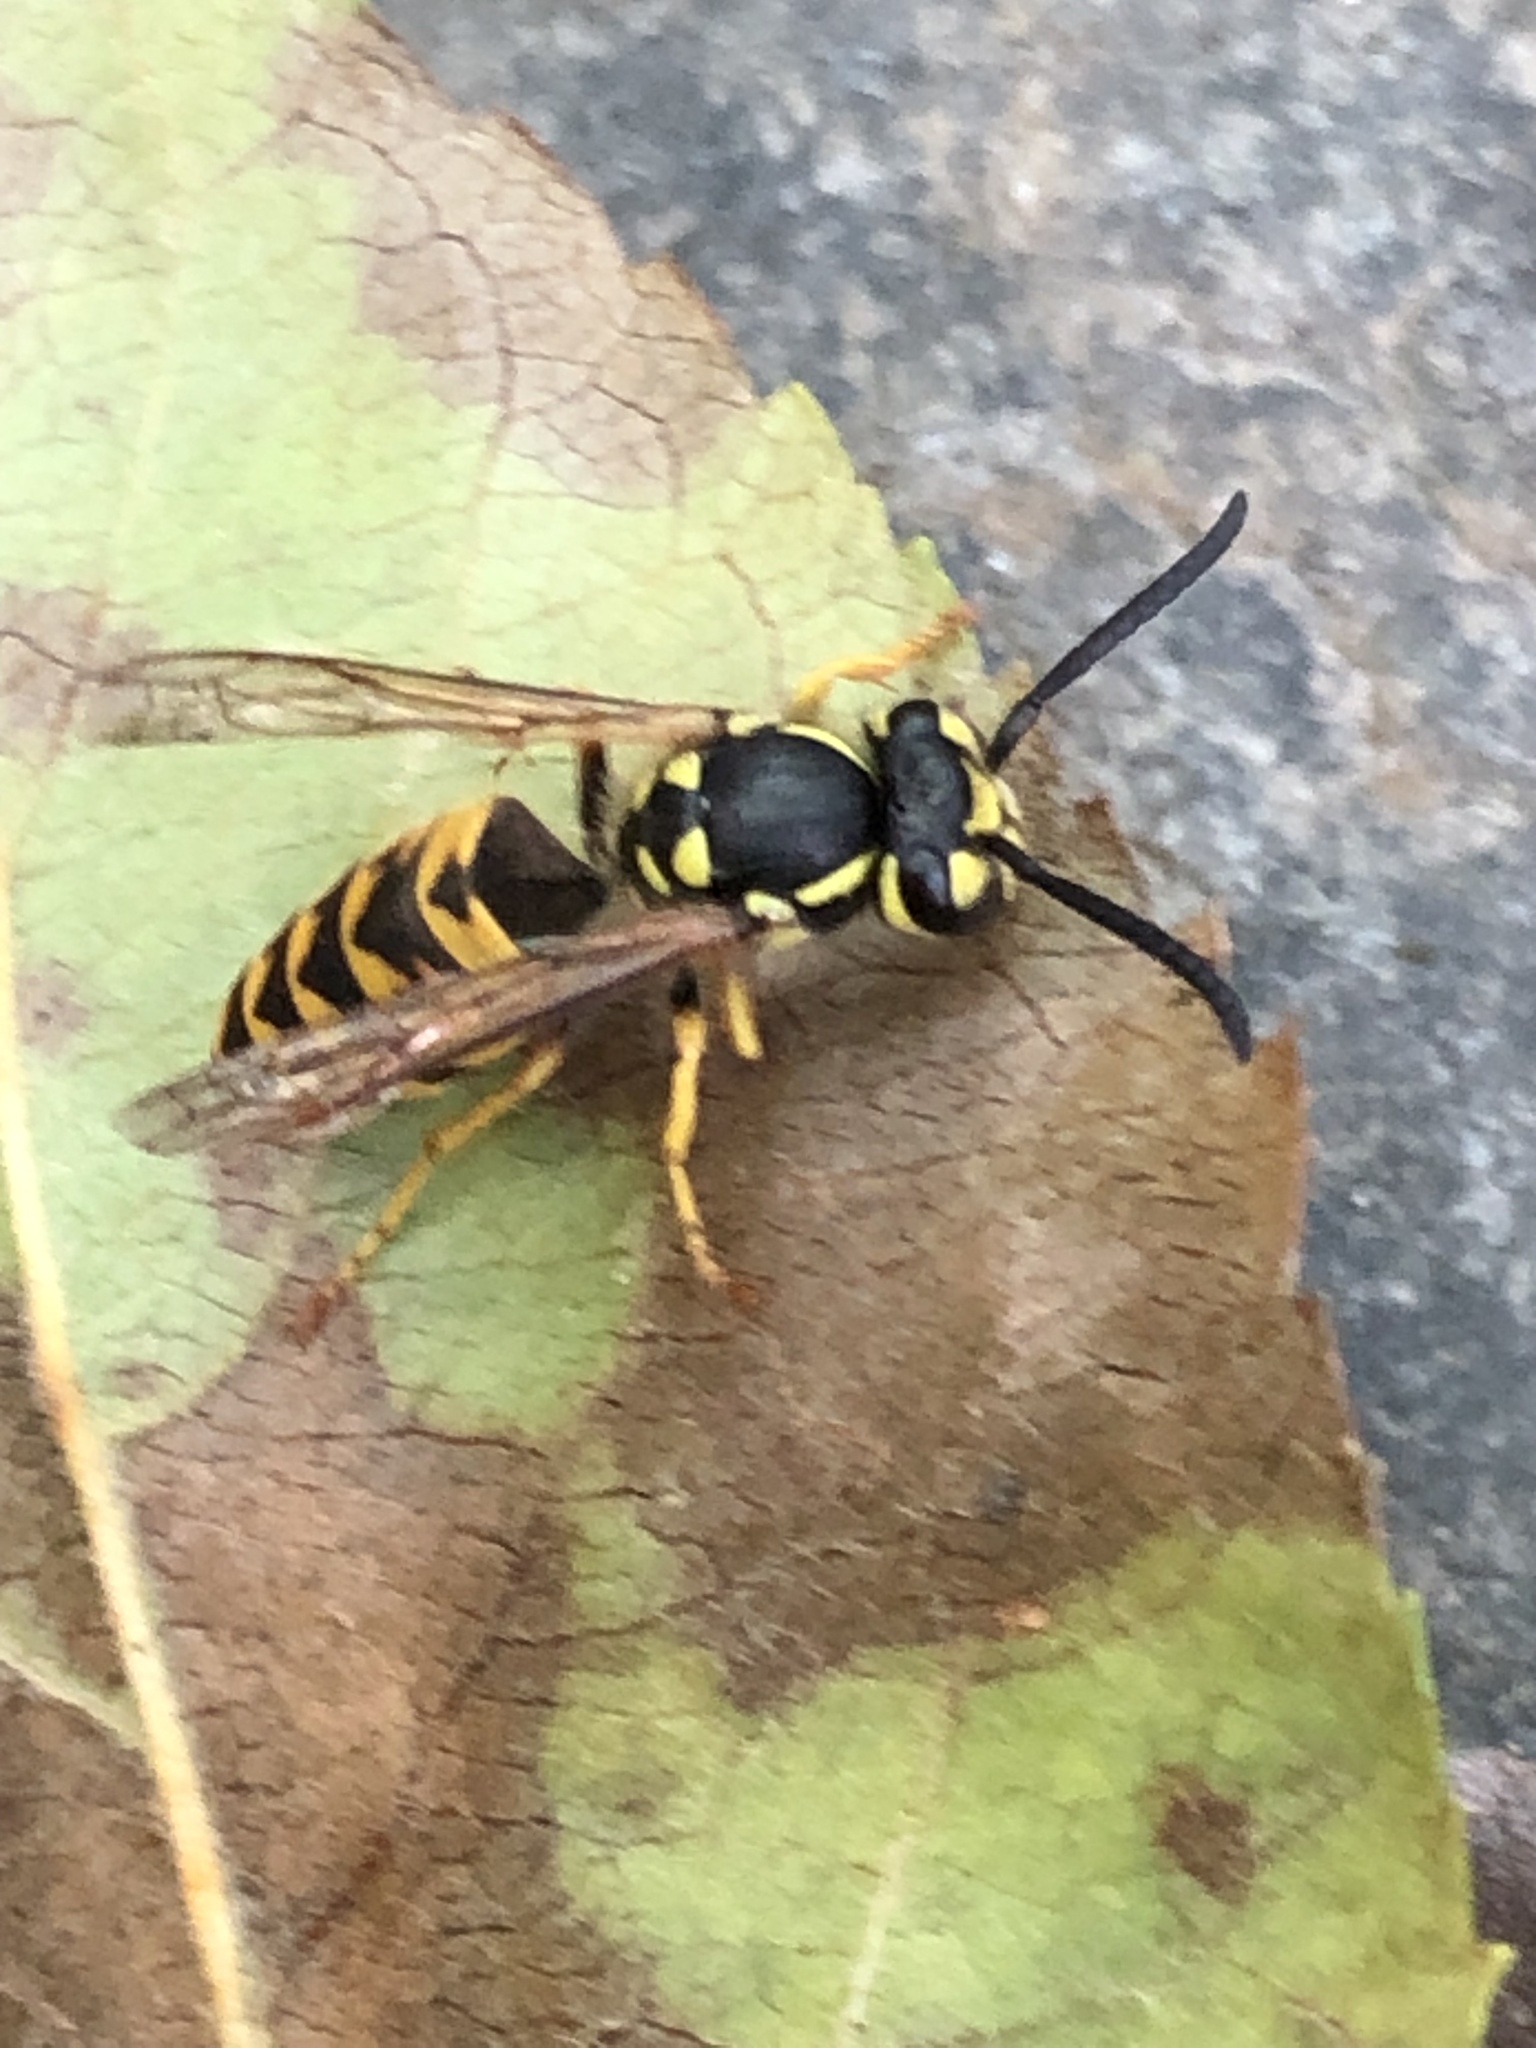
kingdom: Animalia
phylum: Arthropoda
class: Insecta
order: Hymenoptera
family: Vespidae
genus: Vespula
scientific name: Vespula germanica
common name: German wasp
